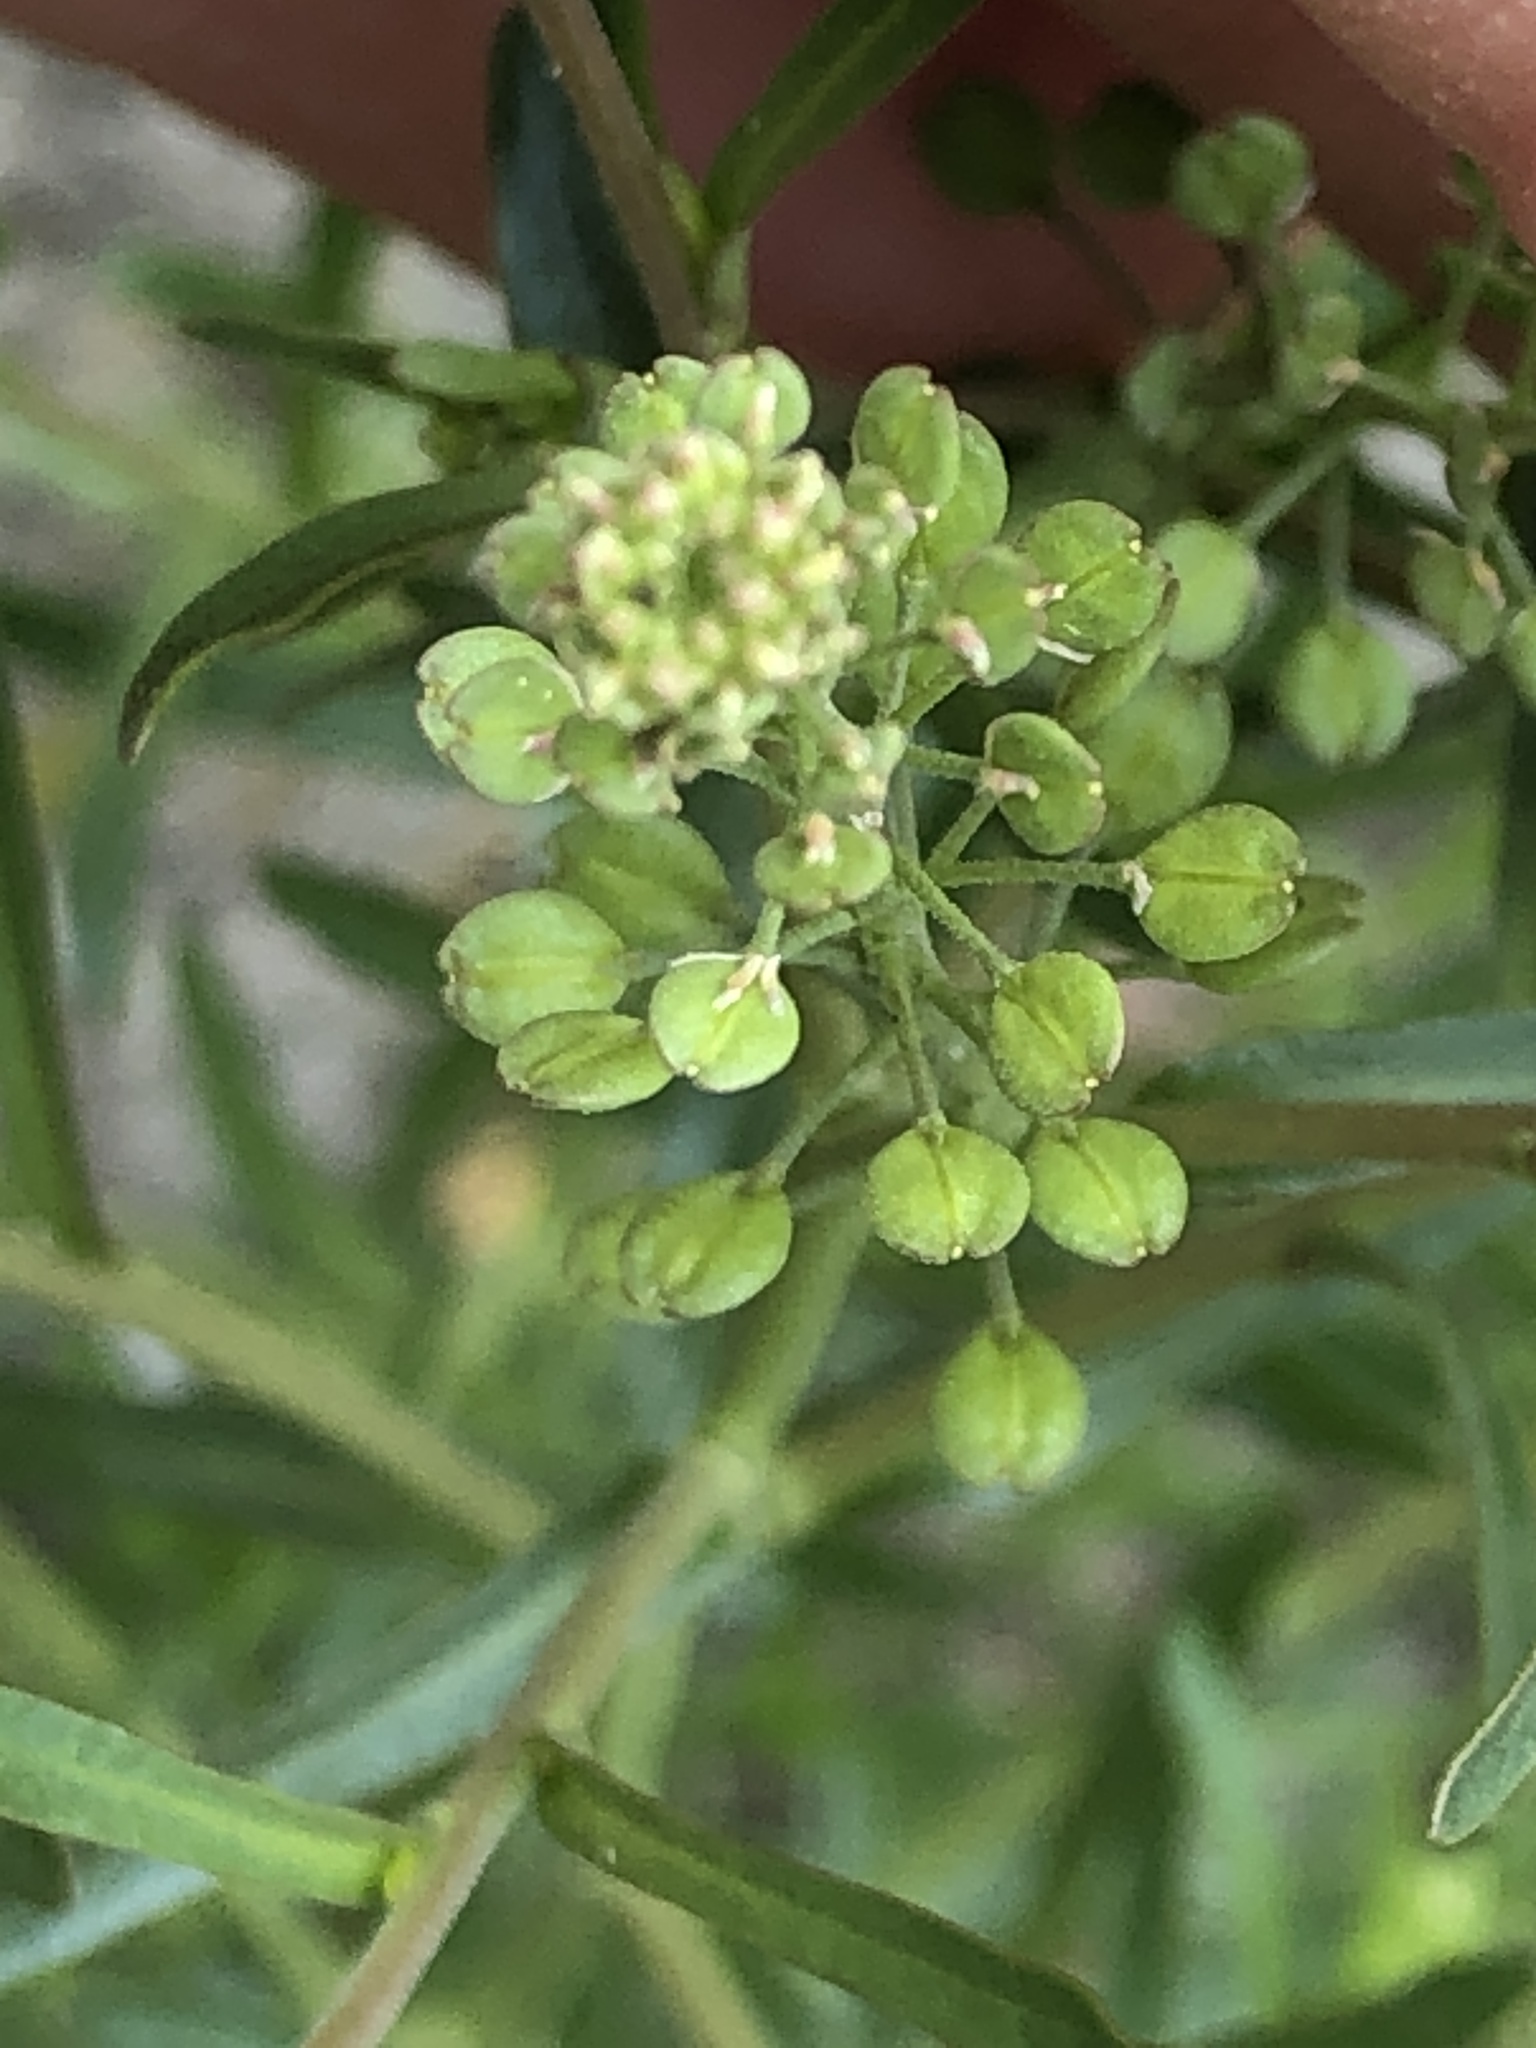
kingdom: Plantae
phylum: Tracheophyta
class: Magnoliopsida
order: Brassicales
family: Brassicaceae
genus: Lepidium
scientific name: Lepidium ruderale
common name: Narrow-leaved pepperwort
